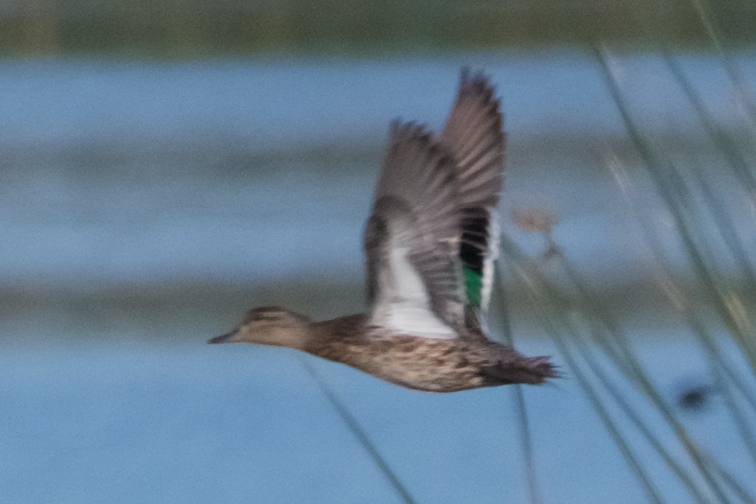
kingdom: Animalia
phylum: Chordata
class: Aves
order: Anseriformes
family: Anatidae
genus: Anas
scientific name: Anas crecca
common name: Eurasian teal
